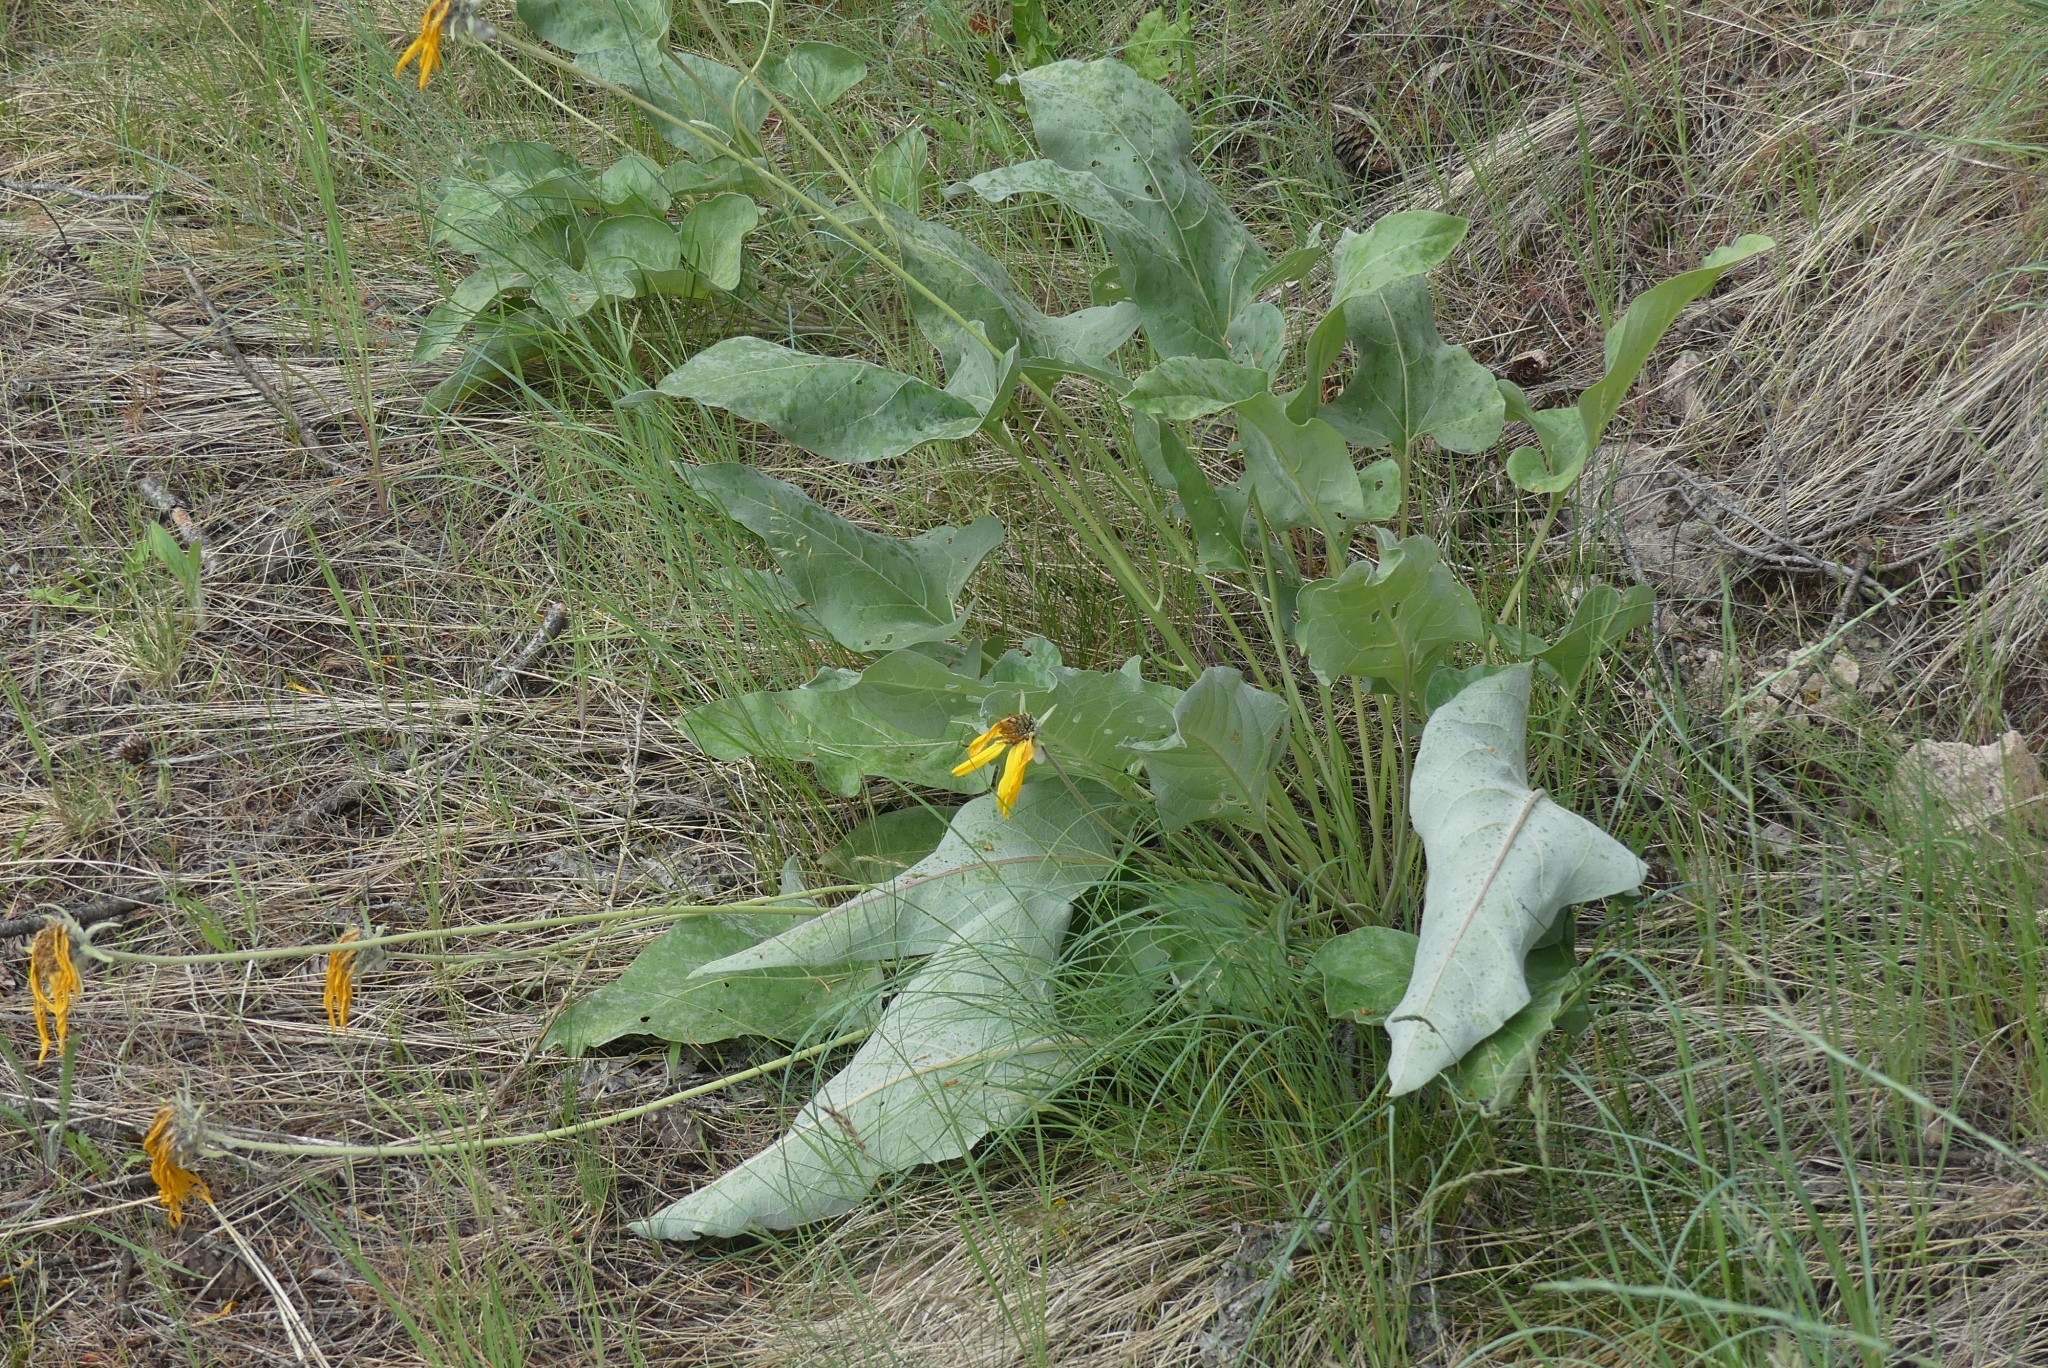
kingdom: Plantae
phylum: Tracheophyta
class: Magnoliopsida
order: Asterales
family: Asteraceae
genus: Wyethia
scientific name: Wyethia sagittata
